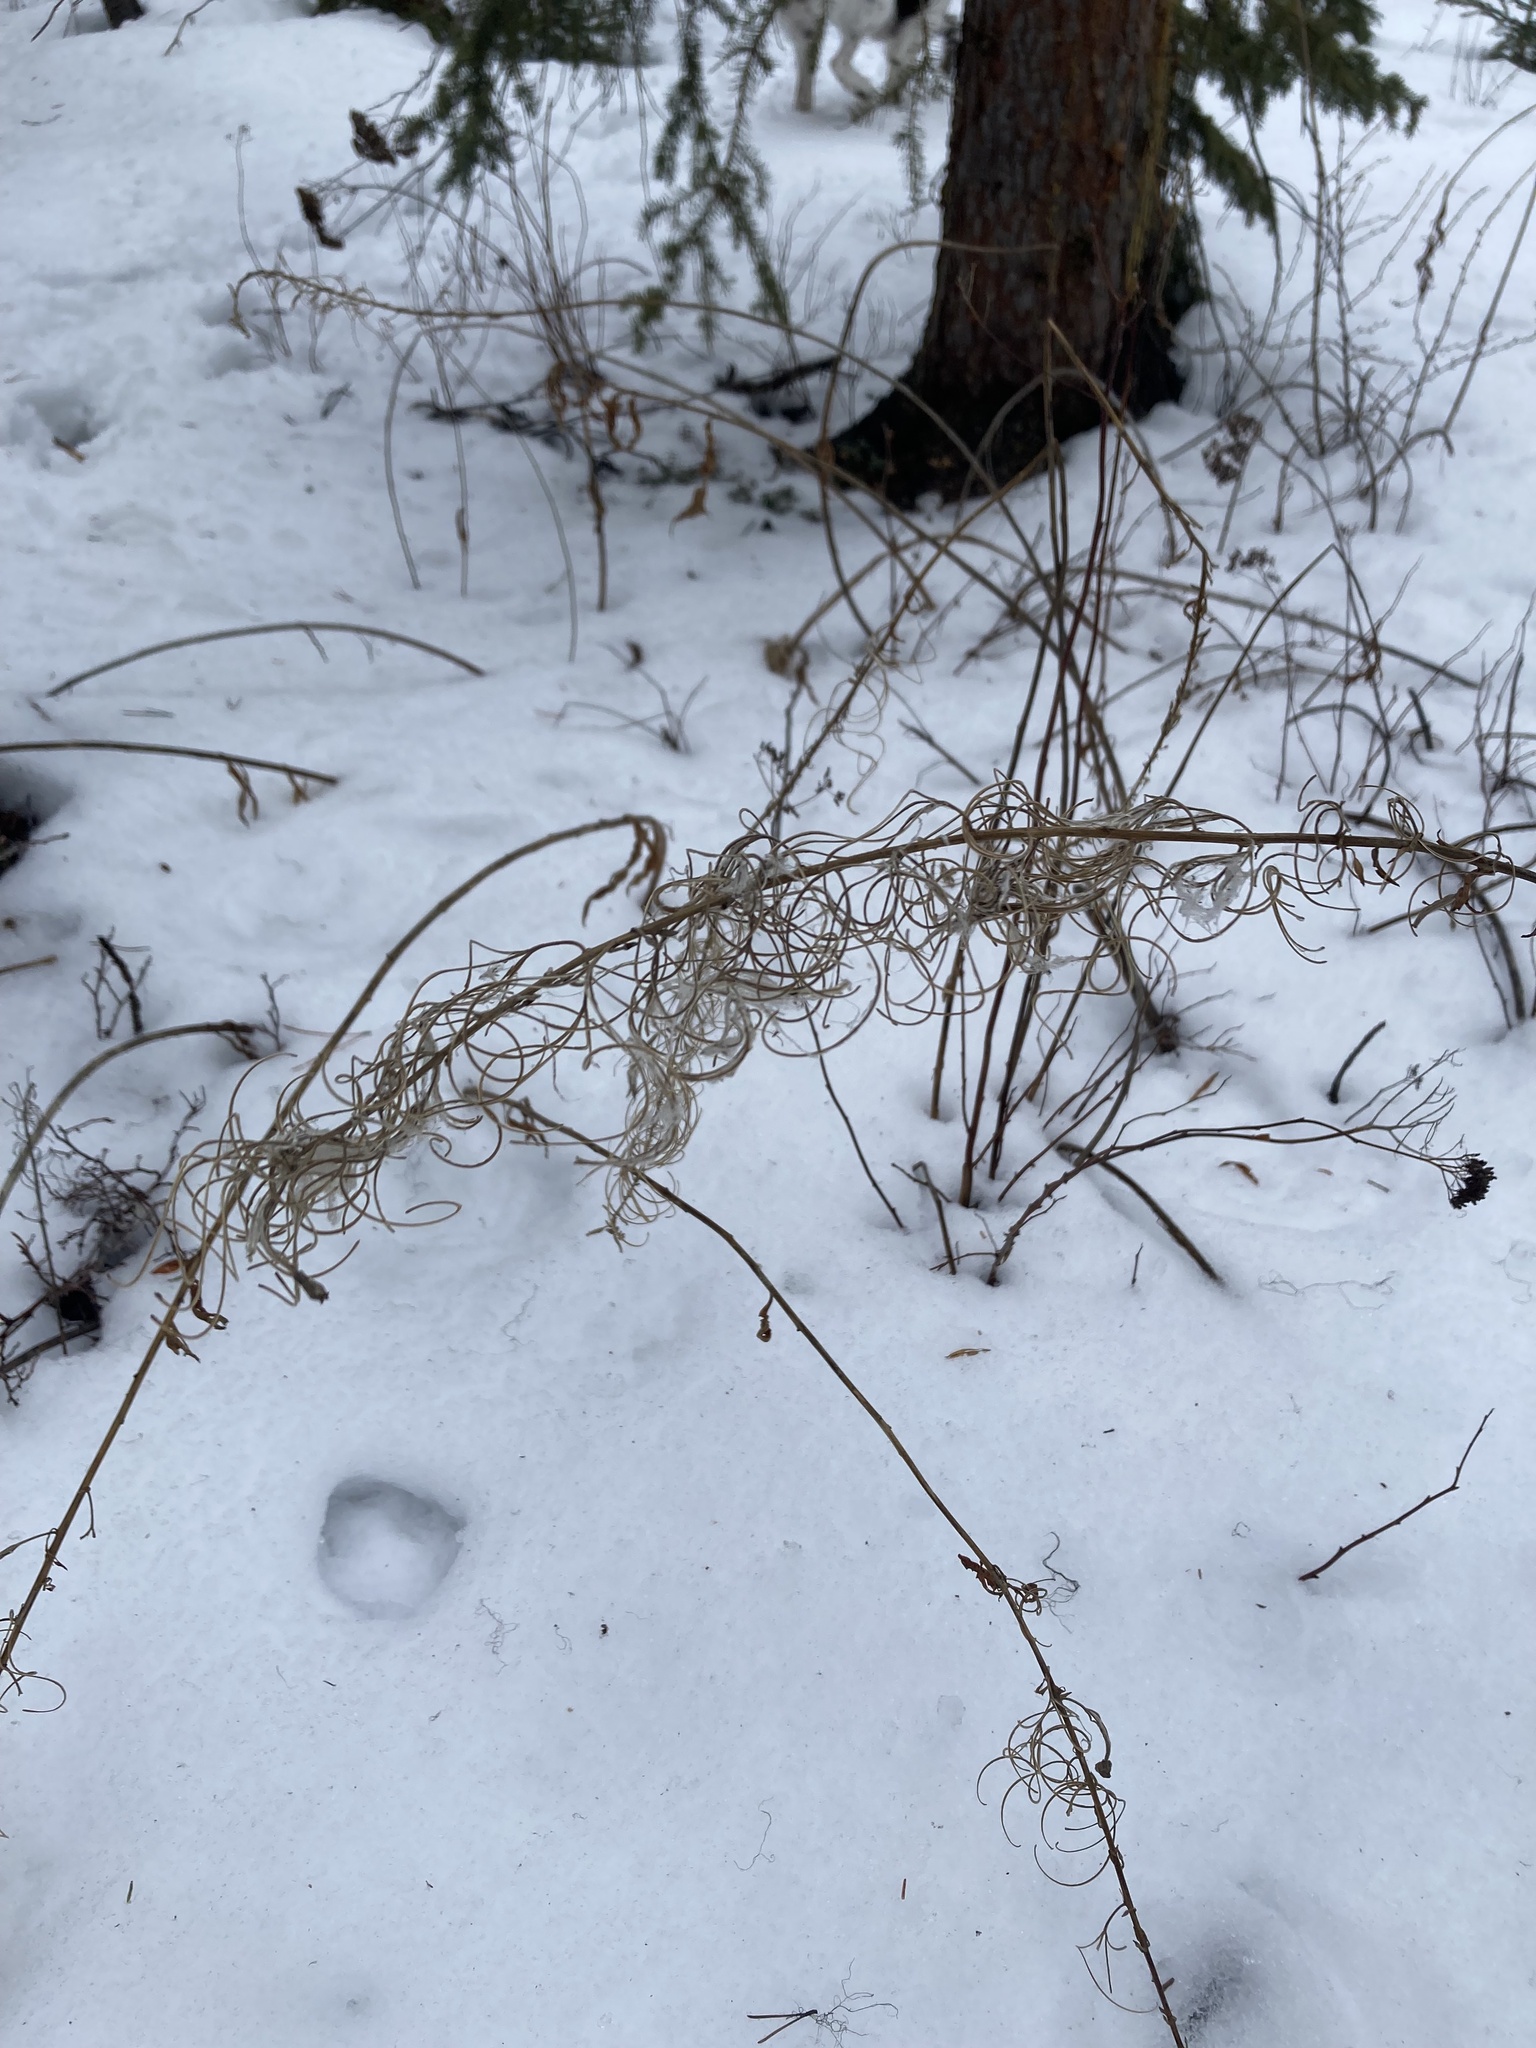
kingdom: Plantae
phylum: Tracheophyta
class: Magnoliopsida
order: Myrtales
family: Onagraceae
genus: Chamaenerion
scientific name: Chamaenerion angustifolium
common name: Fireweed
